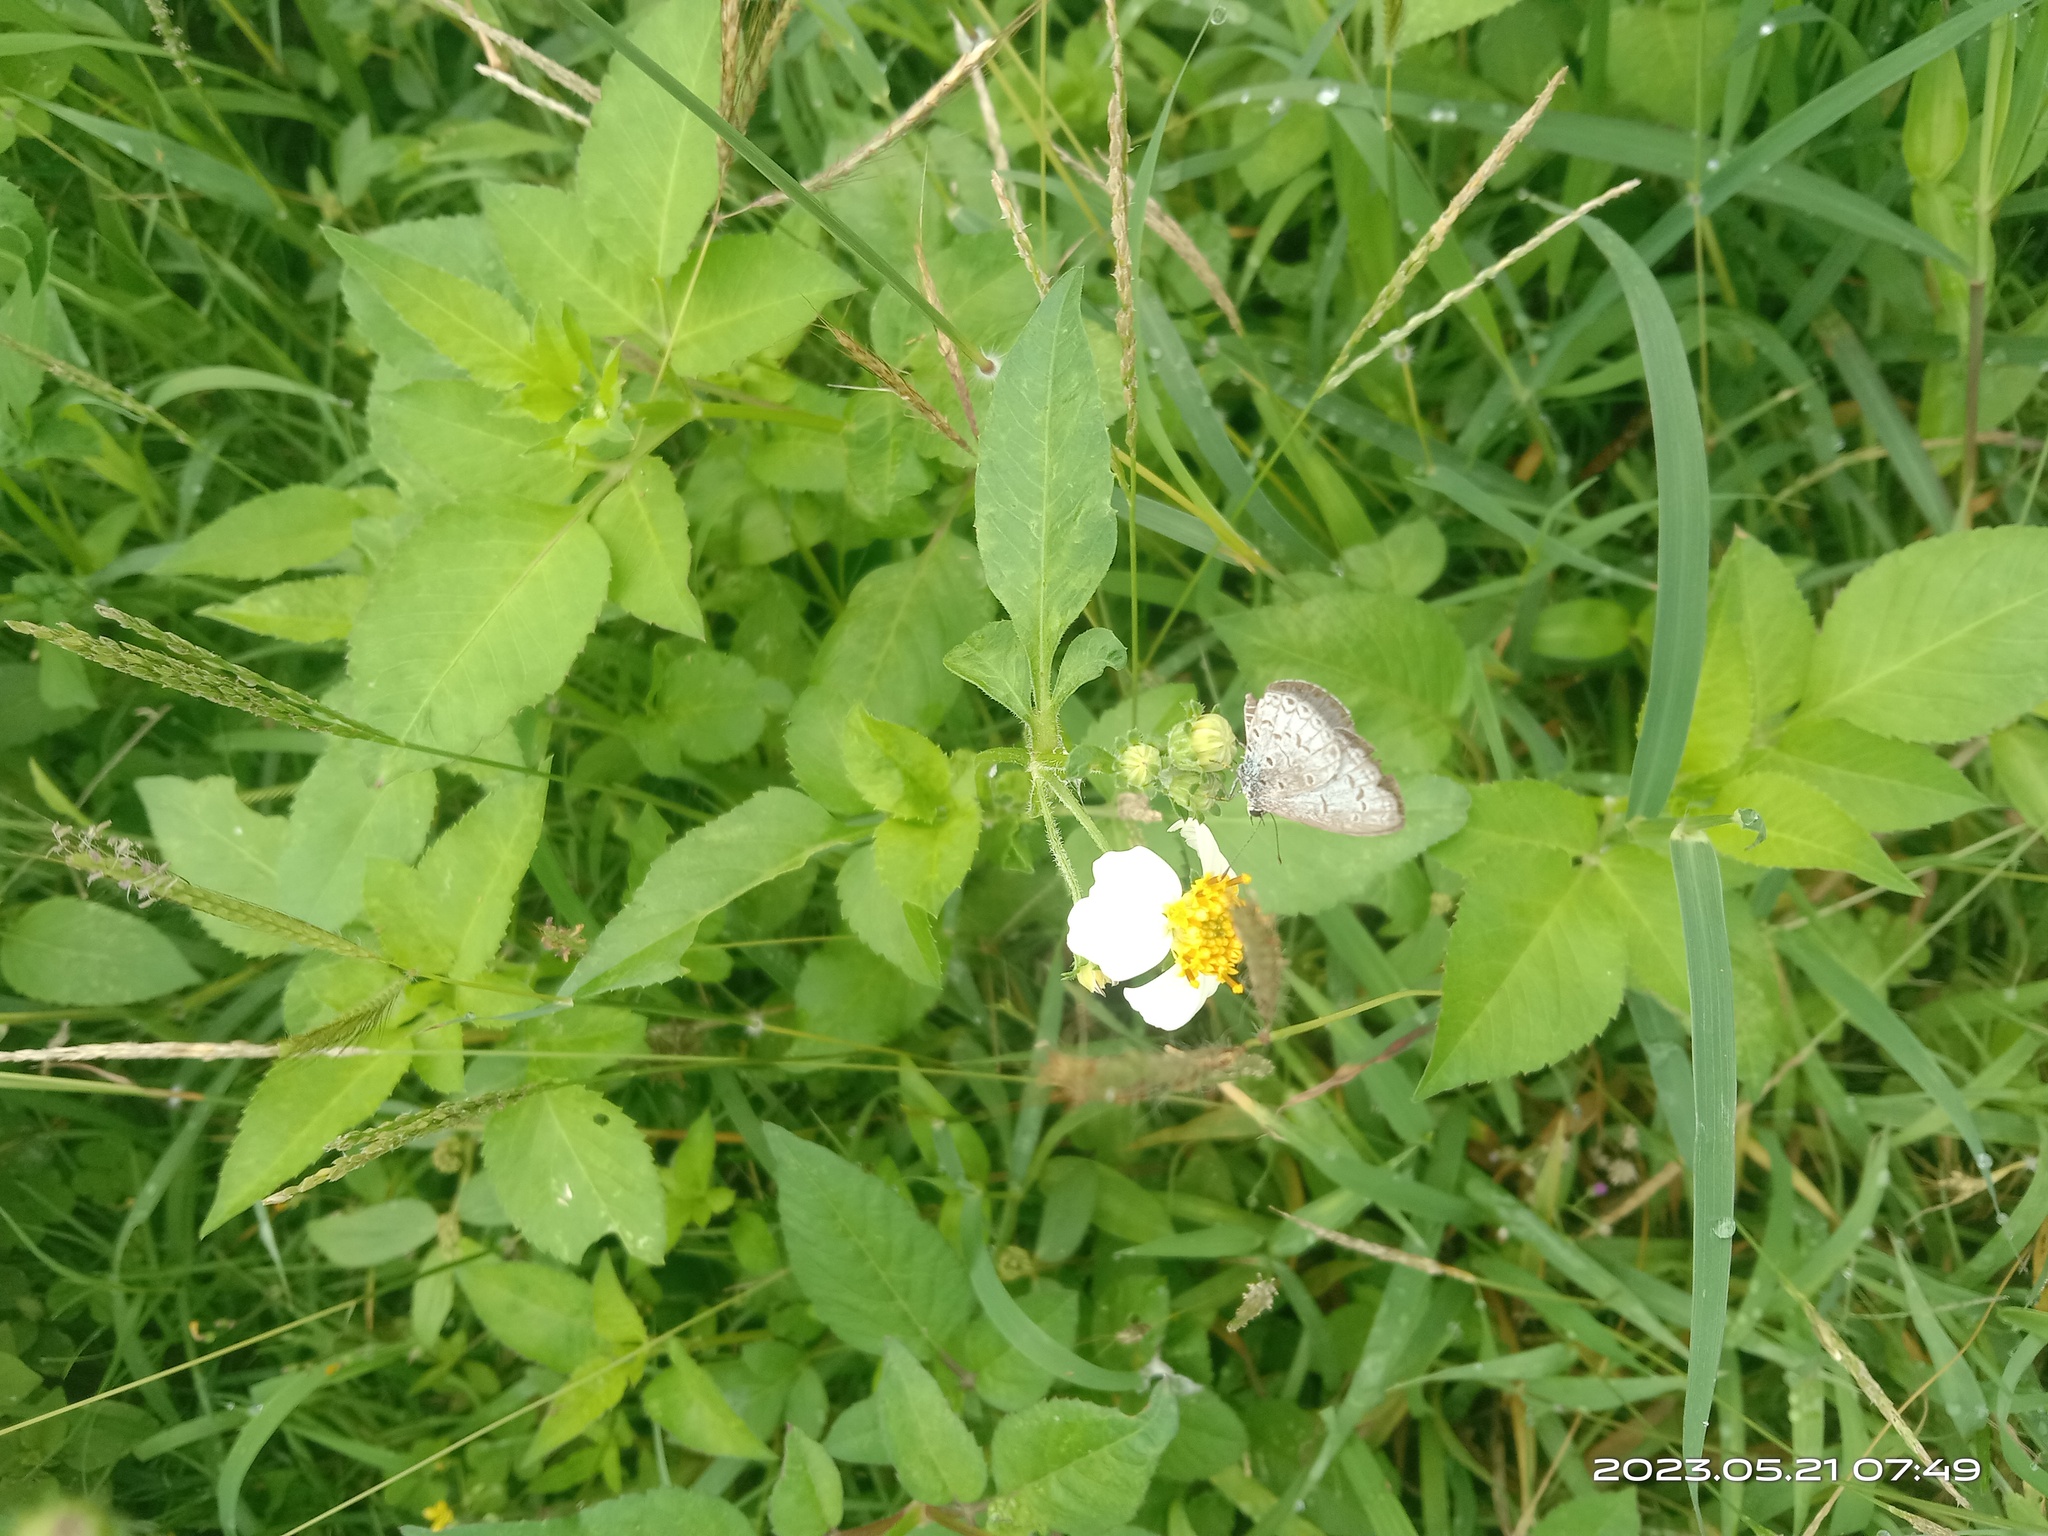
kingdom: Animalia
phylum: Arthropoda
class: Insecta
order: Lepidoptera
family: Lycaenidae
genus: Acytolepis
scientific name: Acytolepis puspa
